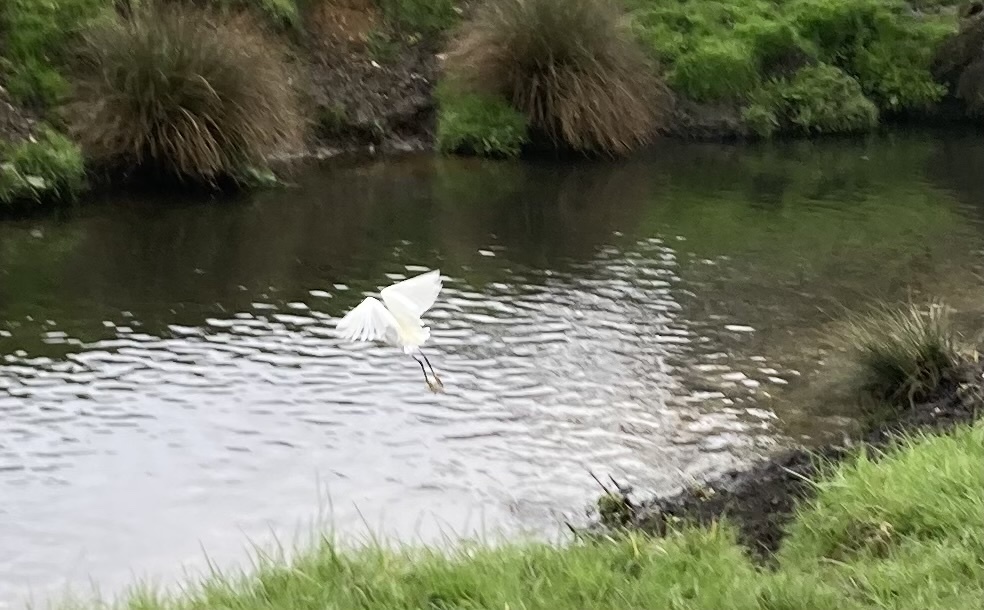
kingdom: Animalia
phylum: Chordata
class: Aves
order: Pelecaniformes
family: Ardeidae
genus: Egretta
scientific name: Egretta garzetta
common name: Little egret
